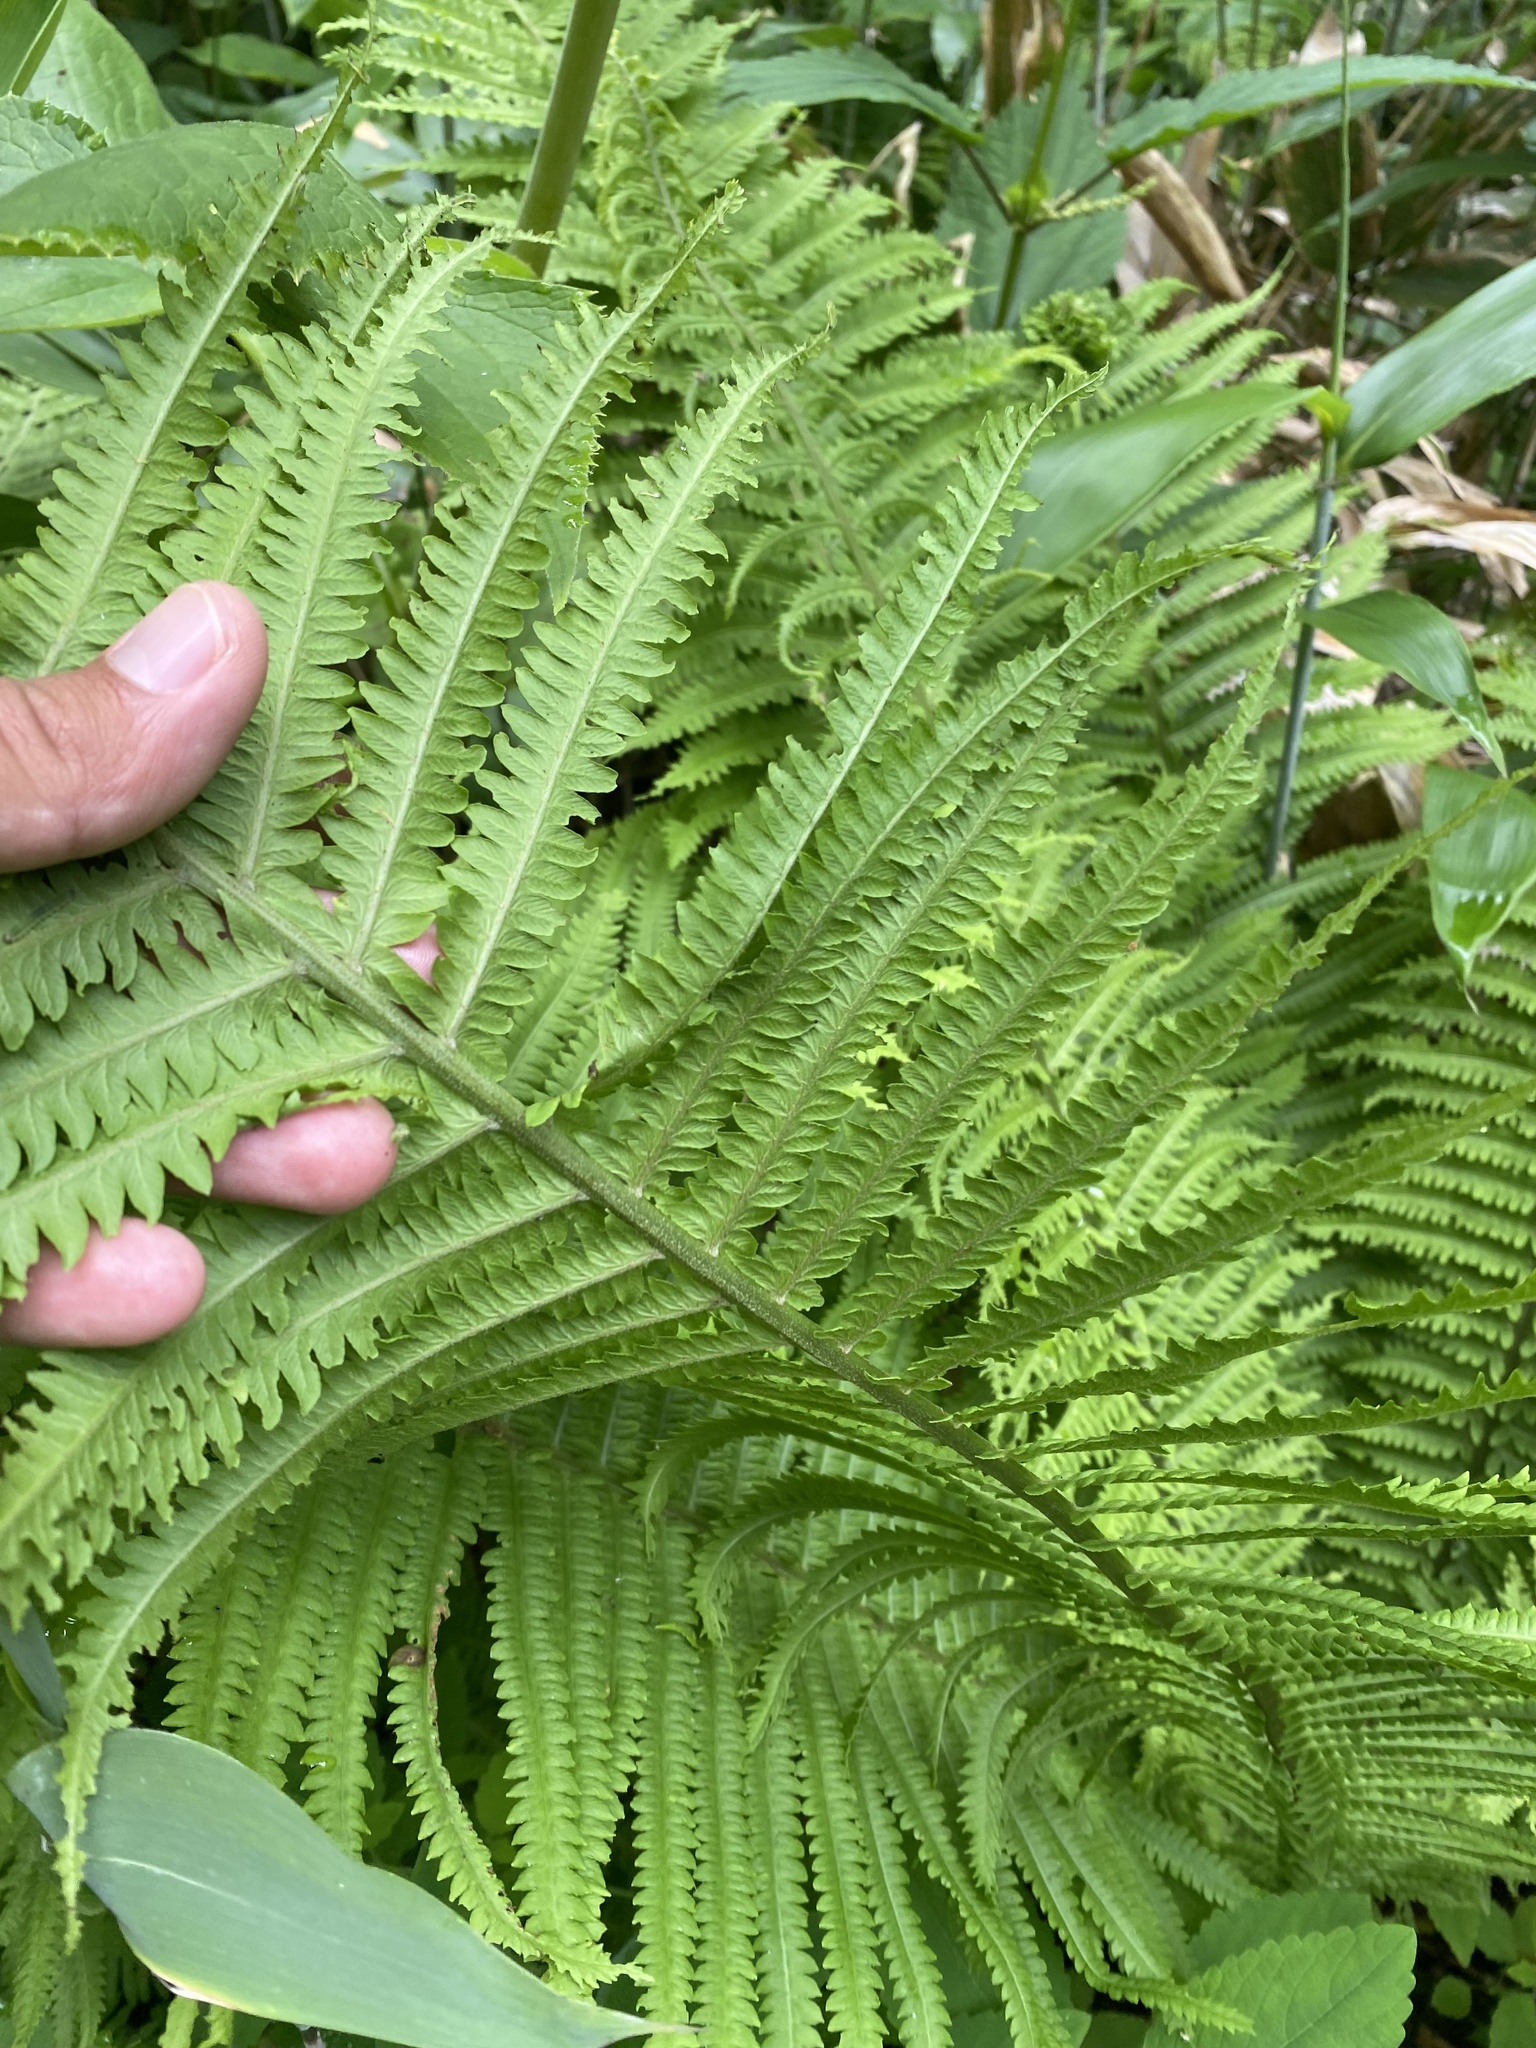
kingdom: Plantae
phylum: Tracheophyta
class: Polypodiopsida
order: Polypodiales
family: Onocleaceae
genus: Matteuccia
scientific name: Matteuccia struthiopteris
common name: Ostrich fern
